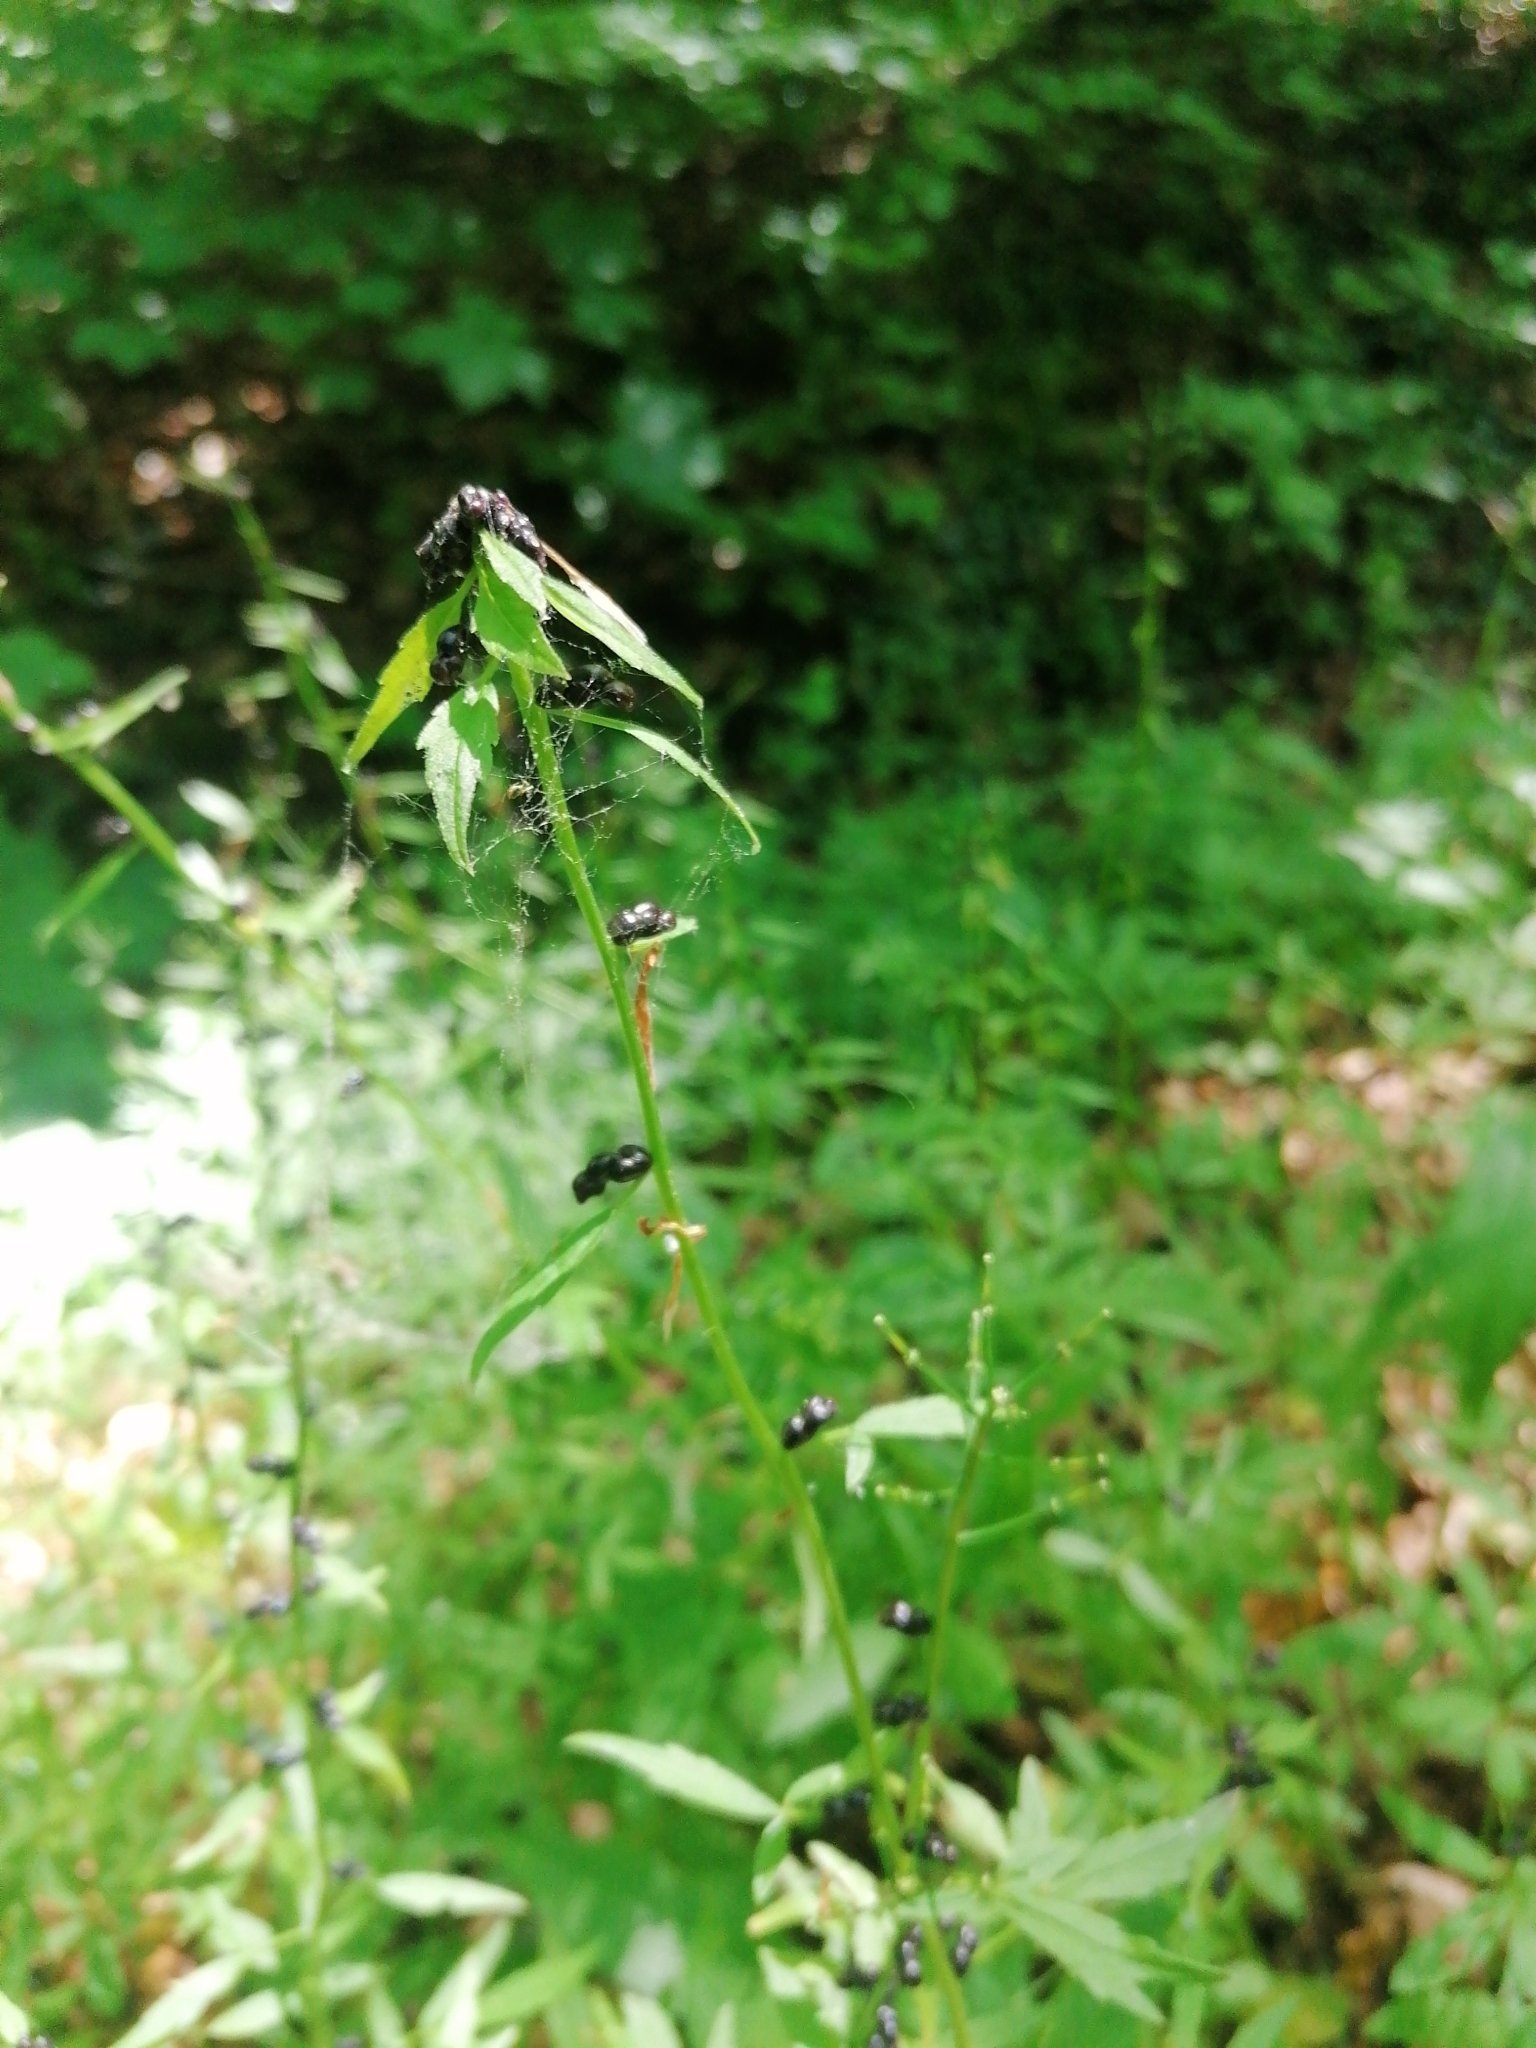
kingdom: Plantae
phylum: Tracheophyta
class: Magnoliopsida
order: Brassicales
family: Brassicaceae
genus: Cardamine
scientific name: Cardamine bulbifera
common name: Coralroot bittercress
